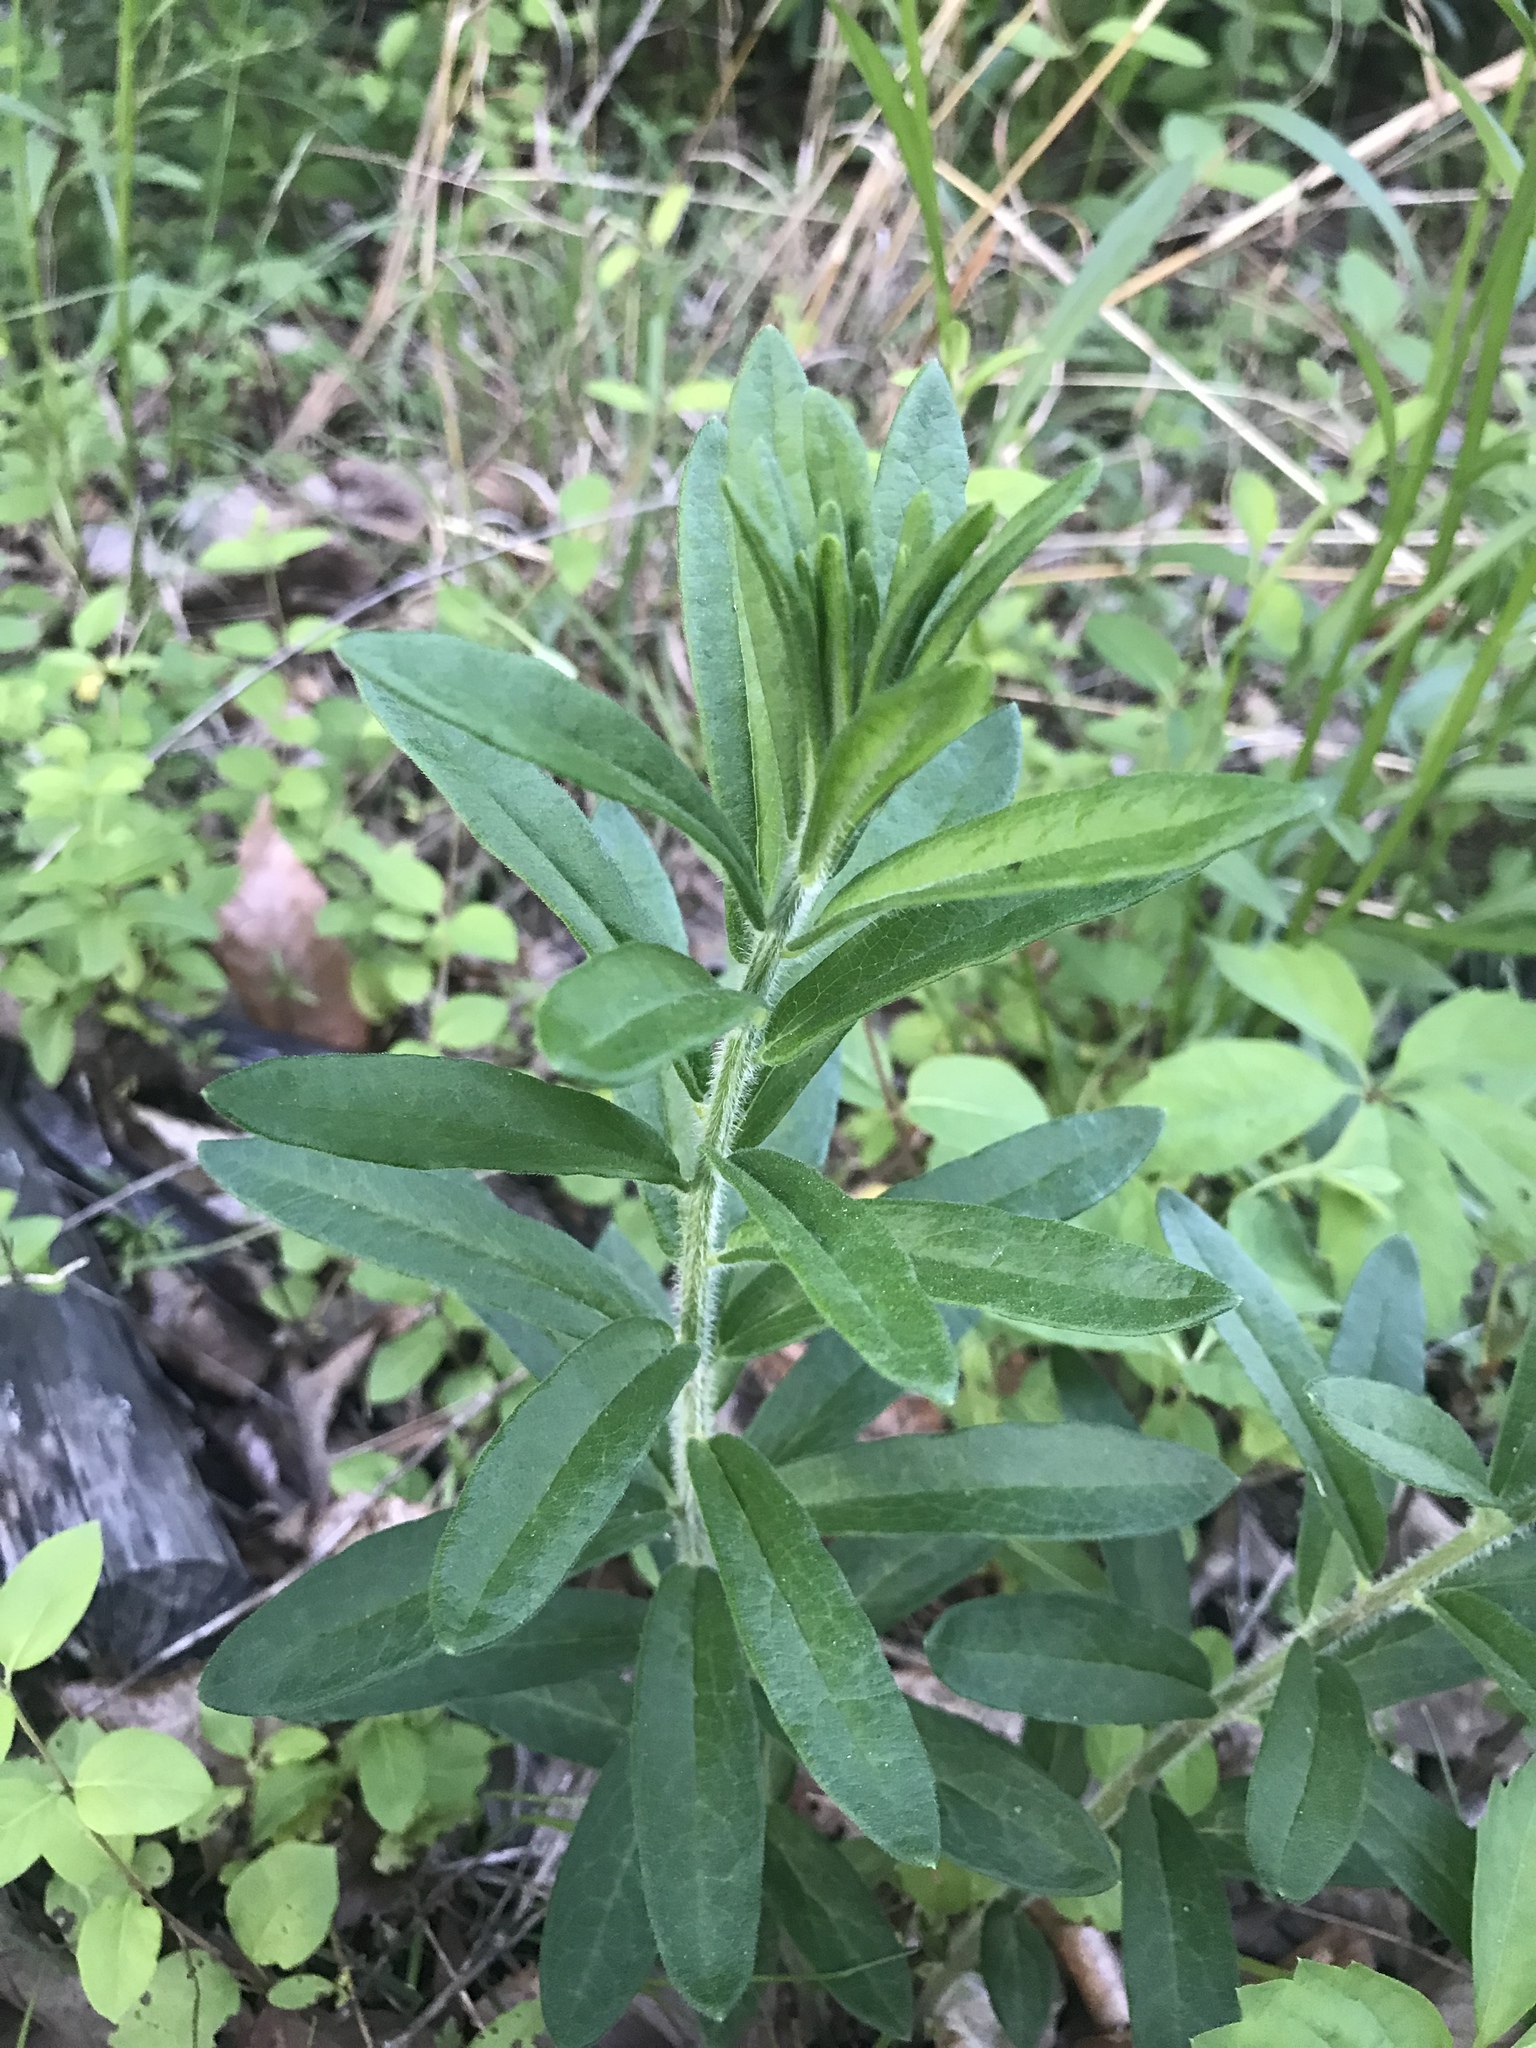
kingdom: Plantae
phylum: Tracheophyta
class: Magnoliopsida
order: Gentianales
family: Apocynaceae
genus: Asclepias
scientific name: Asclepias tuberosa
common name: Butterfly milkweed
